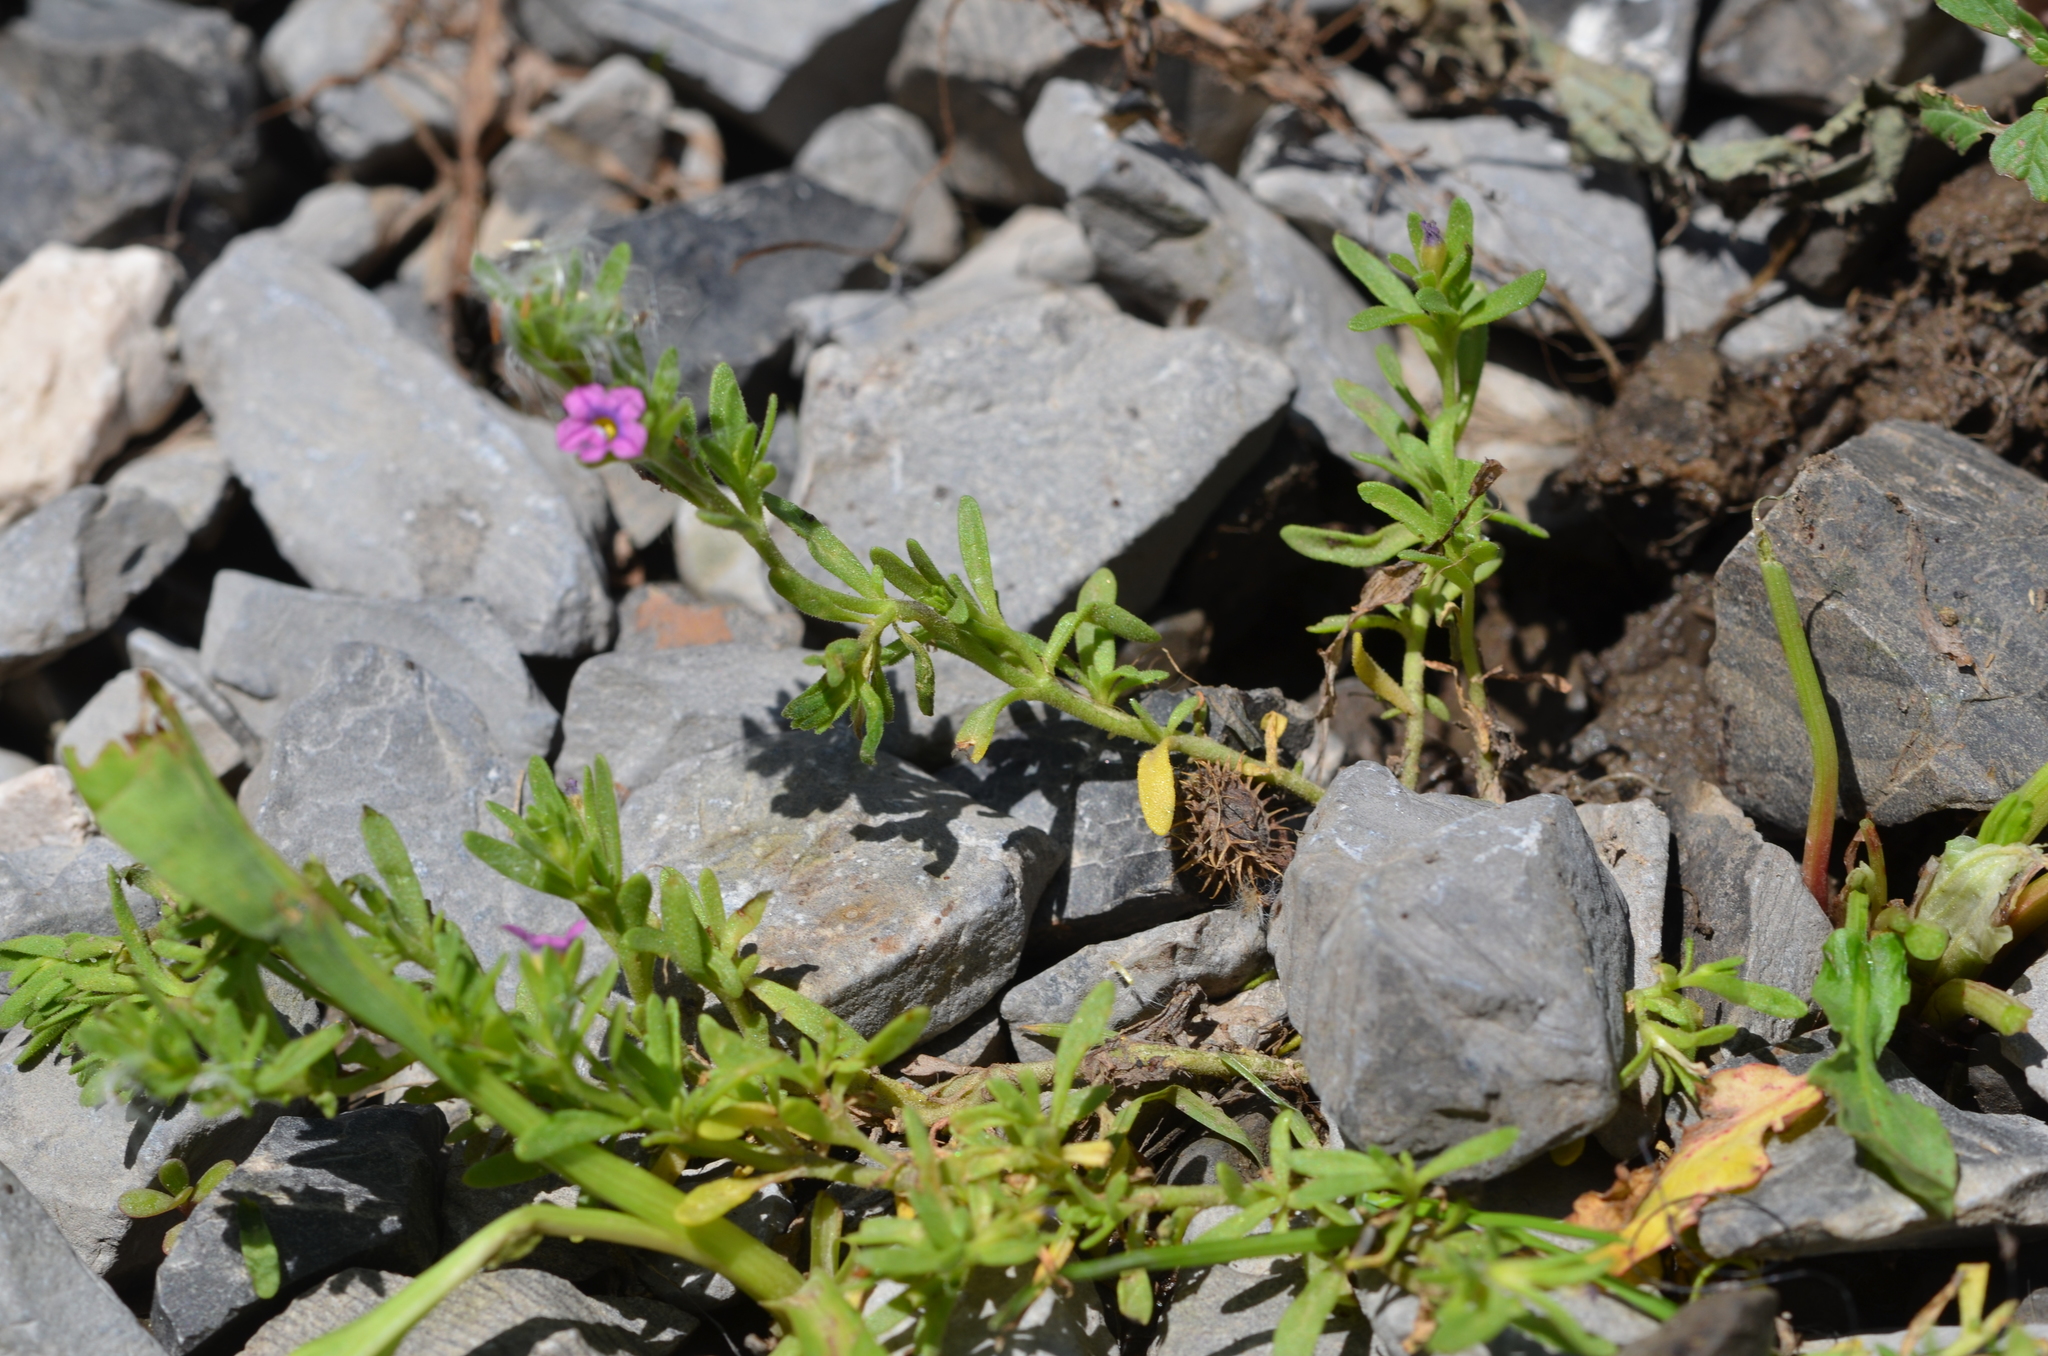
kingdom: Plantae
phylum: Tracheophyta
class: Magnoliopsida
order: Solanales
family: Solanaceae
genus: Calibrachoa
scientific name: Calibrachoa parviflora
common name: Seaside petunia
